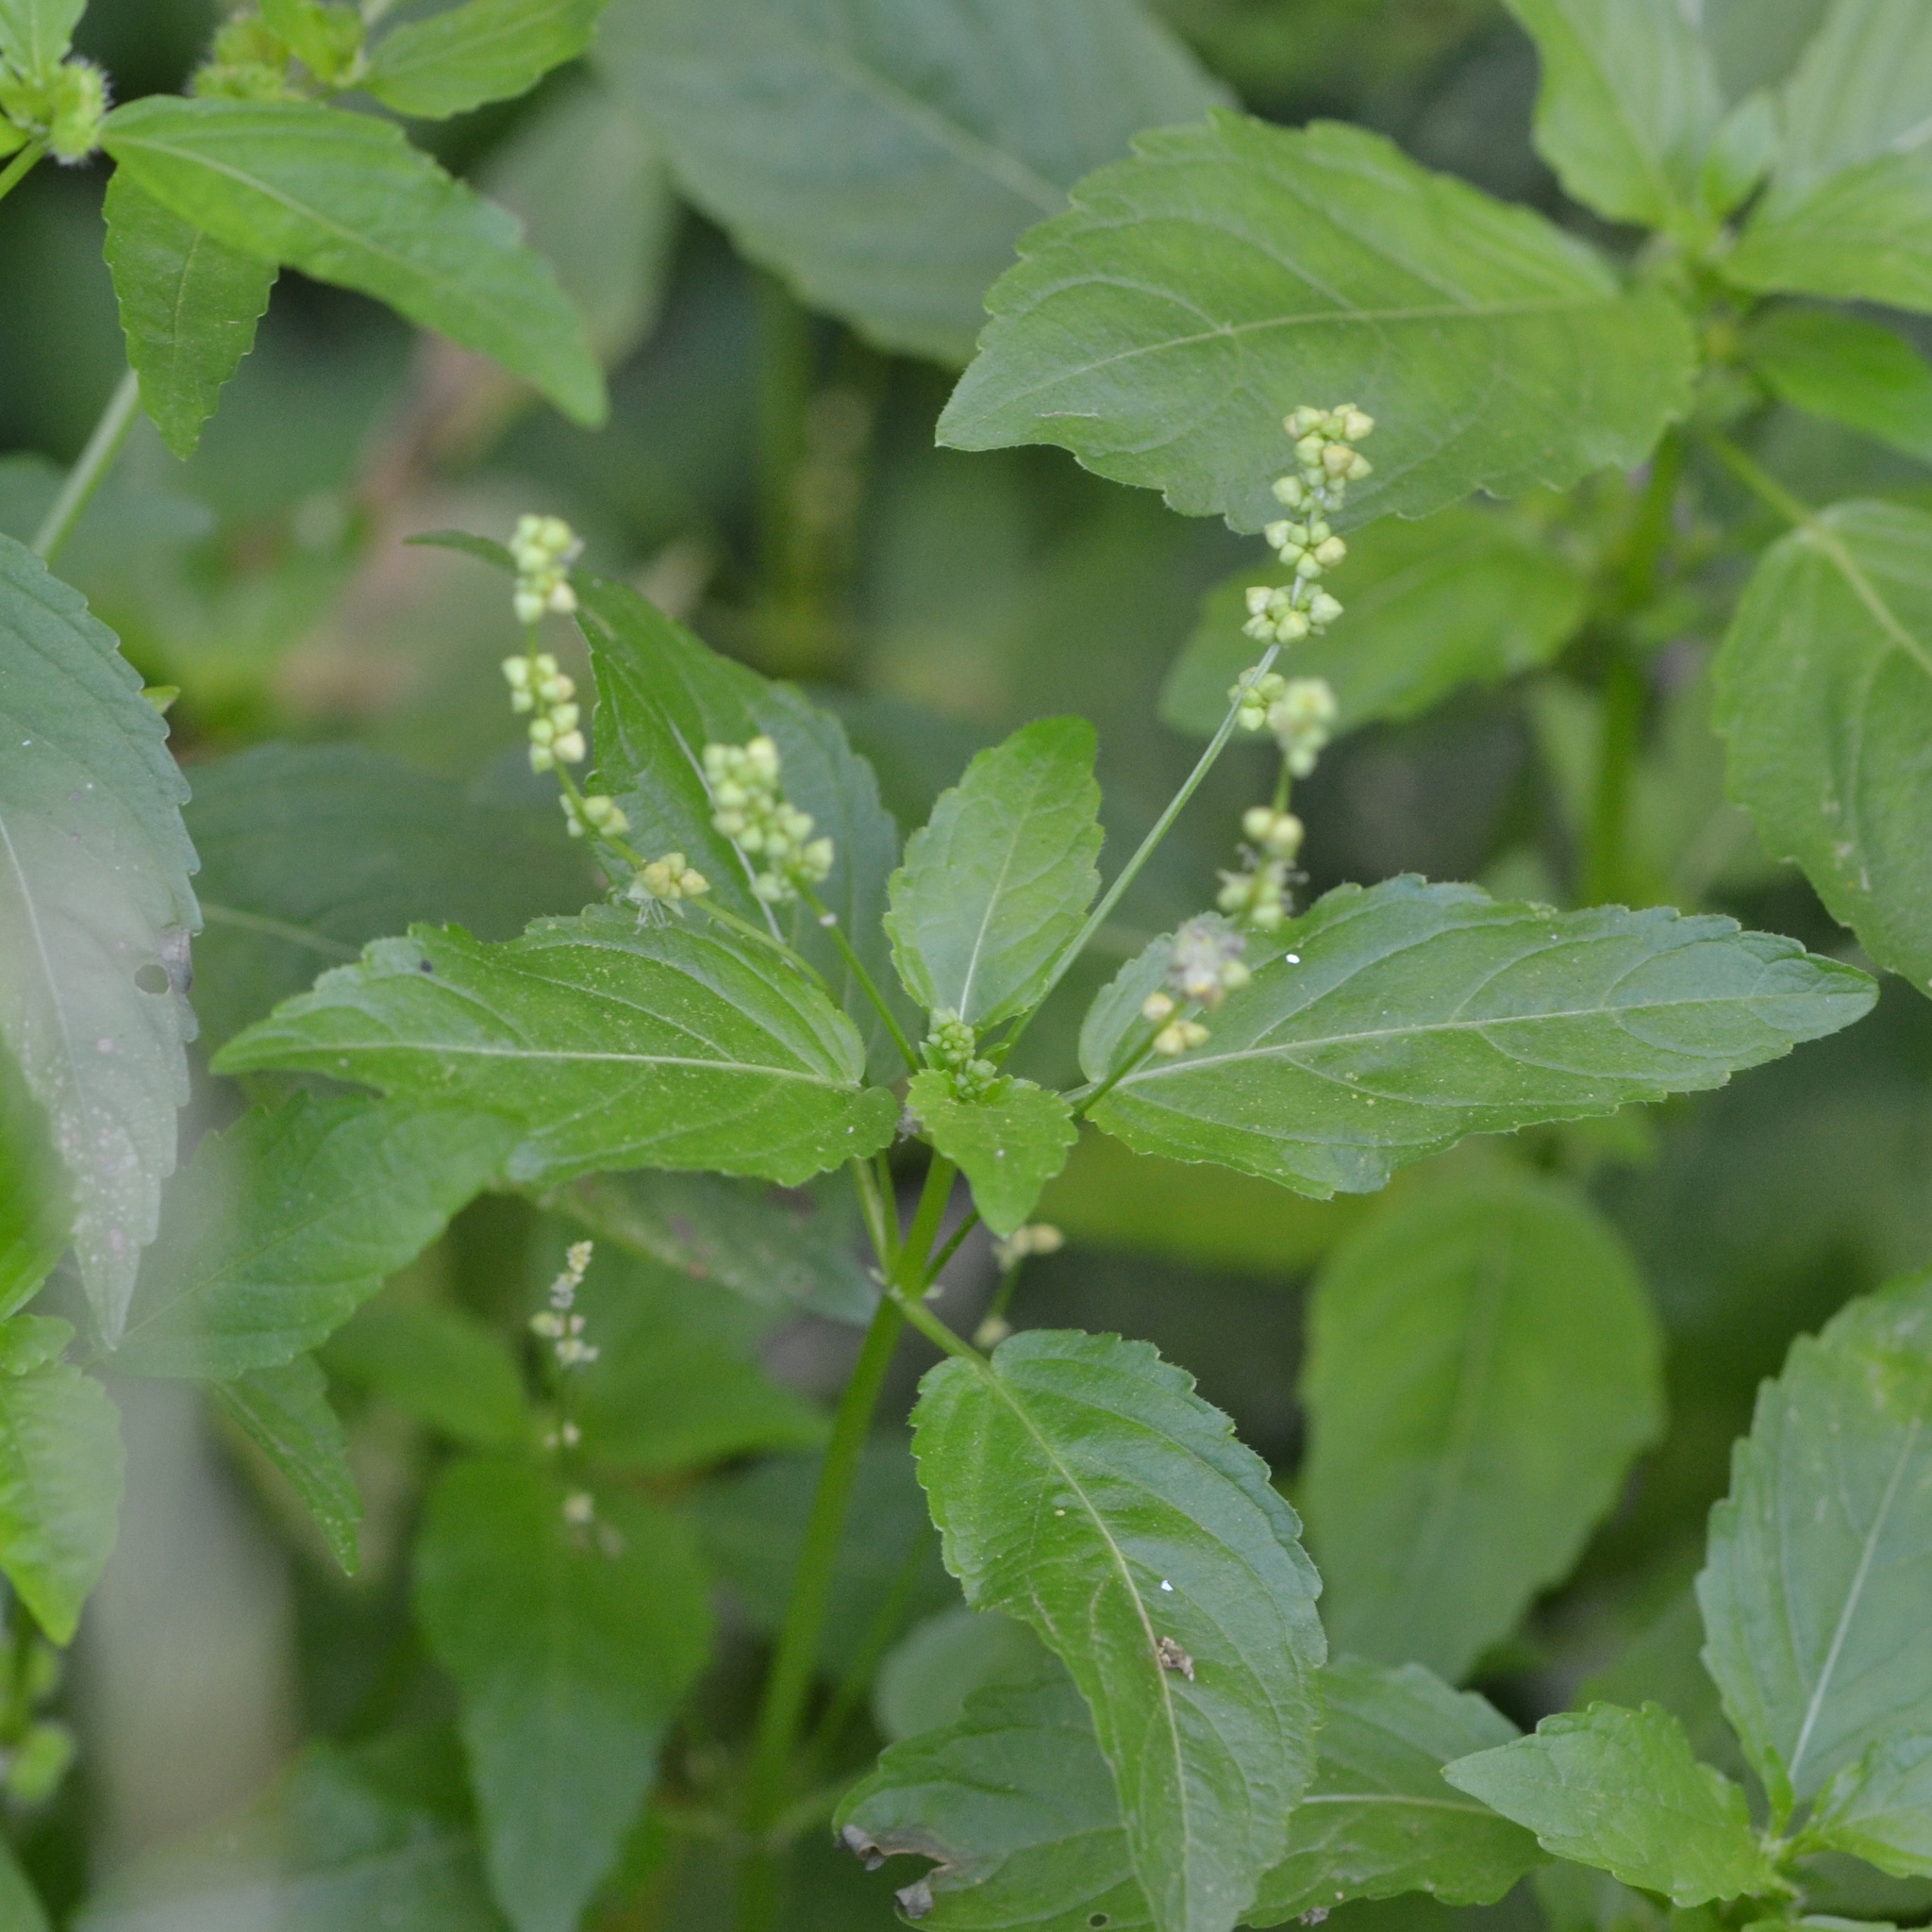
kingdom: Plantae
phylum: Tracheophyta
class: Magnoliopsida
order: Malpighiales
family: Euphorbiaceae
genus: Mercurialis
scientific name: Mercurialis annua
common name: Annual mercury
